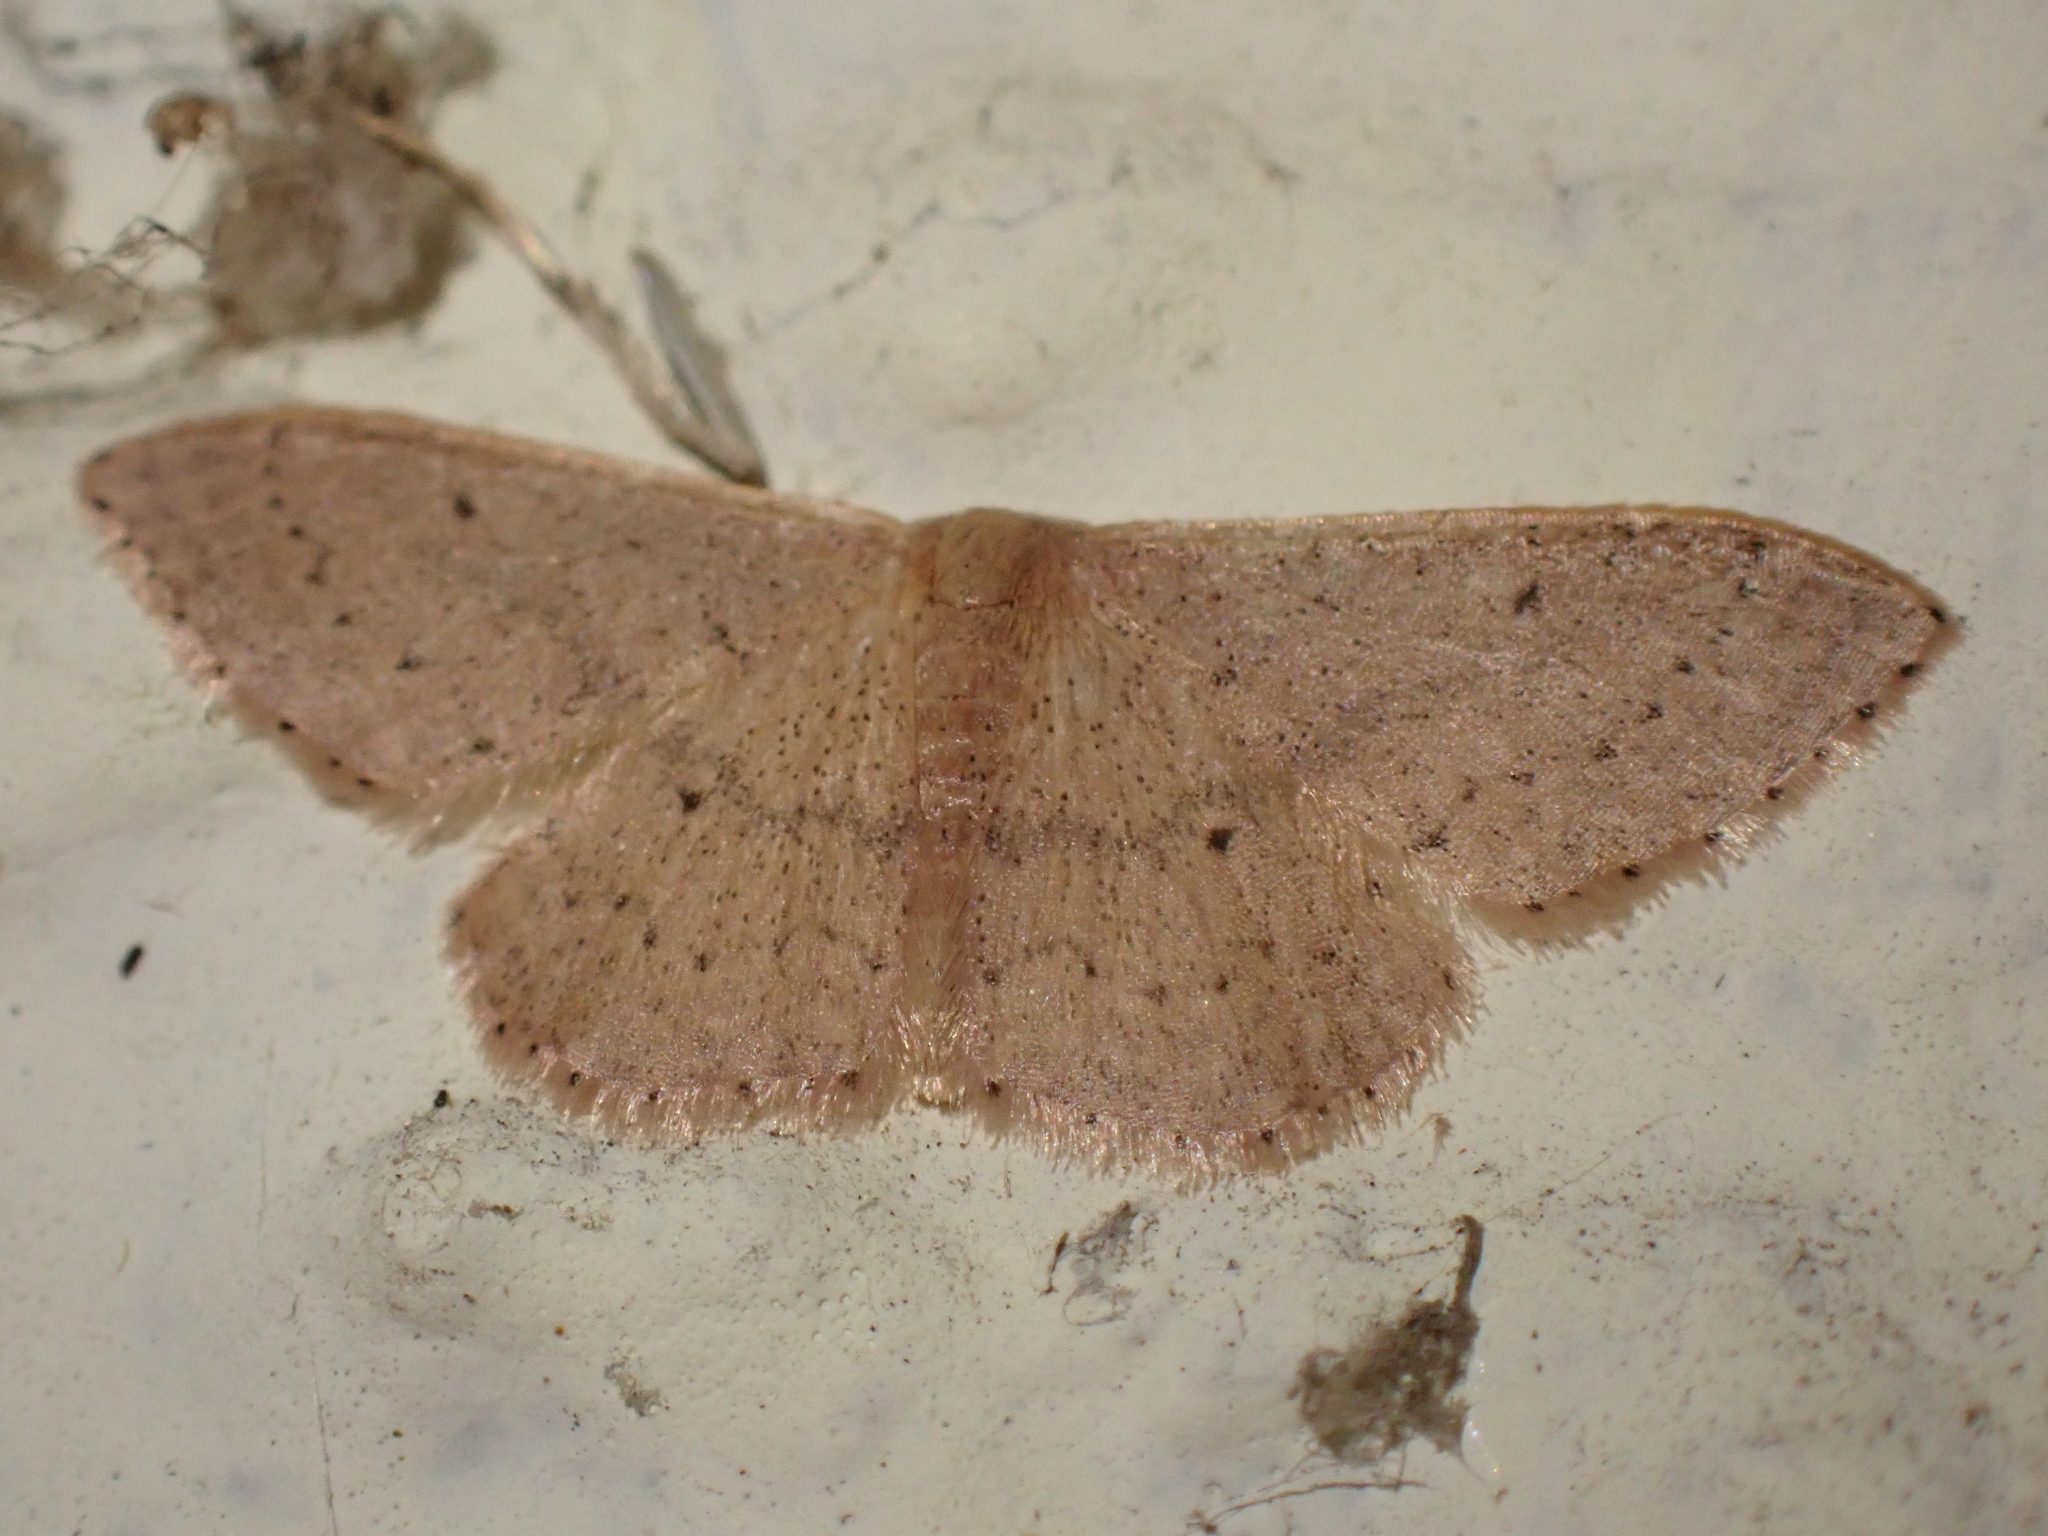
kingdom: Animalia
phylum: Arthropoda
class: Insecta
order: Lepidoptera
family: Geometridae
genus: Idaea
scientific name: Idaea eugeniata
